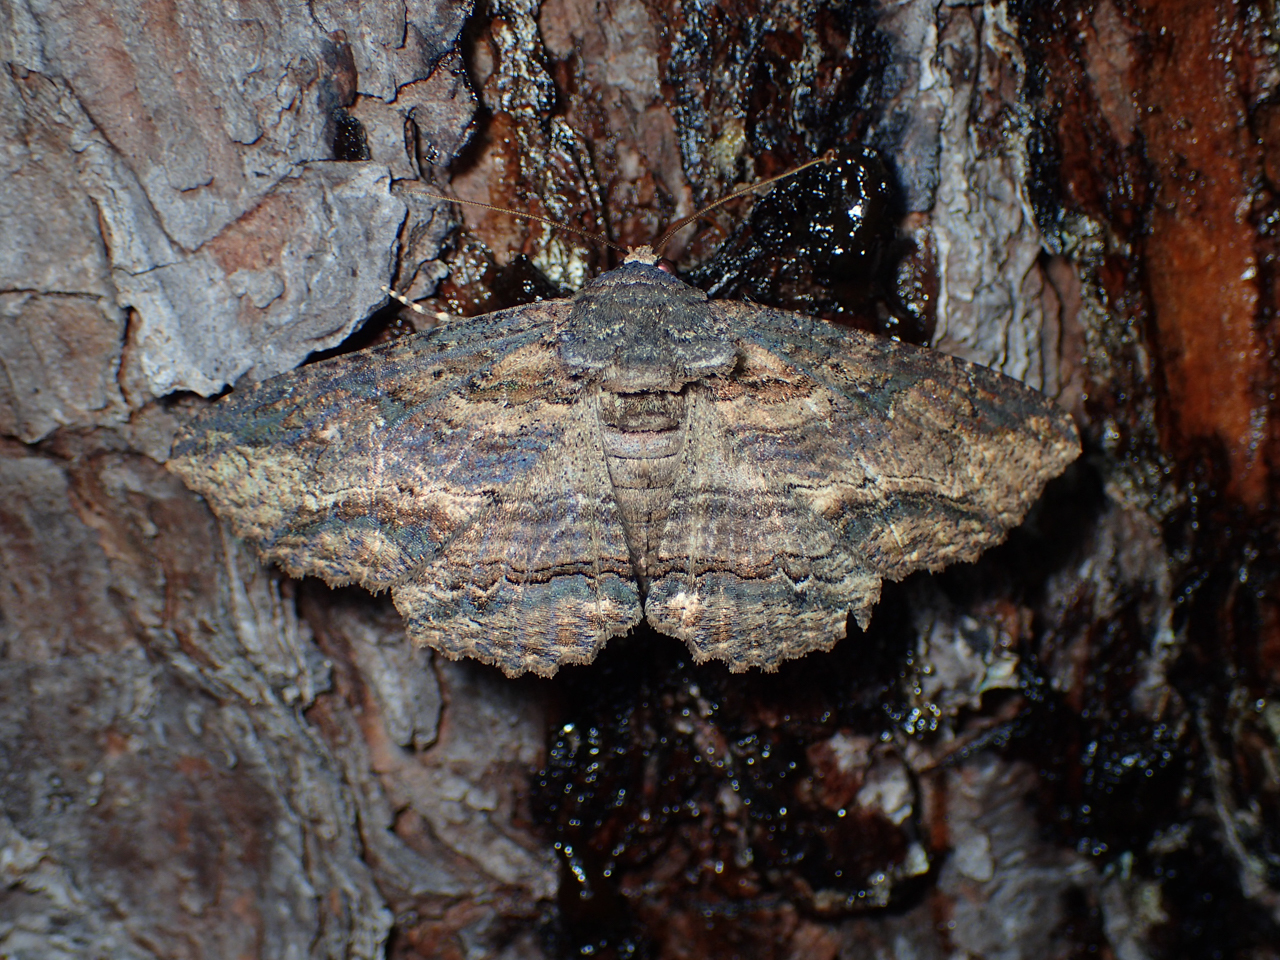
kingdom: Animalia
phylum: Arthropoda
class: Insecta
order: Lepidoptera
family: Erebidae
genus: Zale
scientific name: Zale lunata
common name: Lunate zale moth
